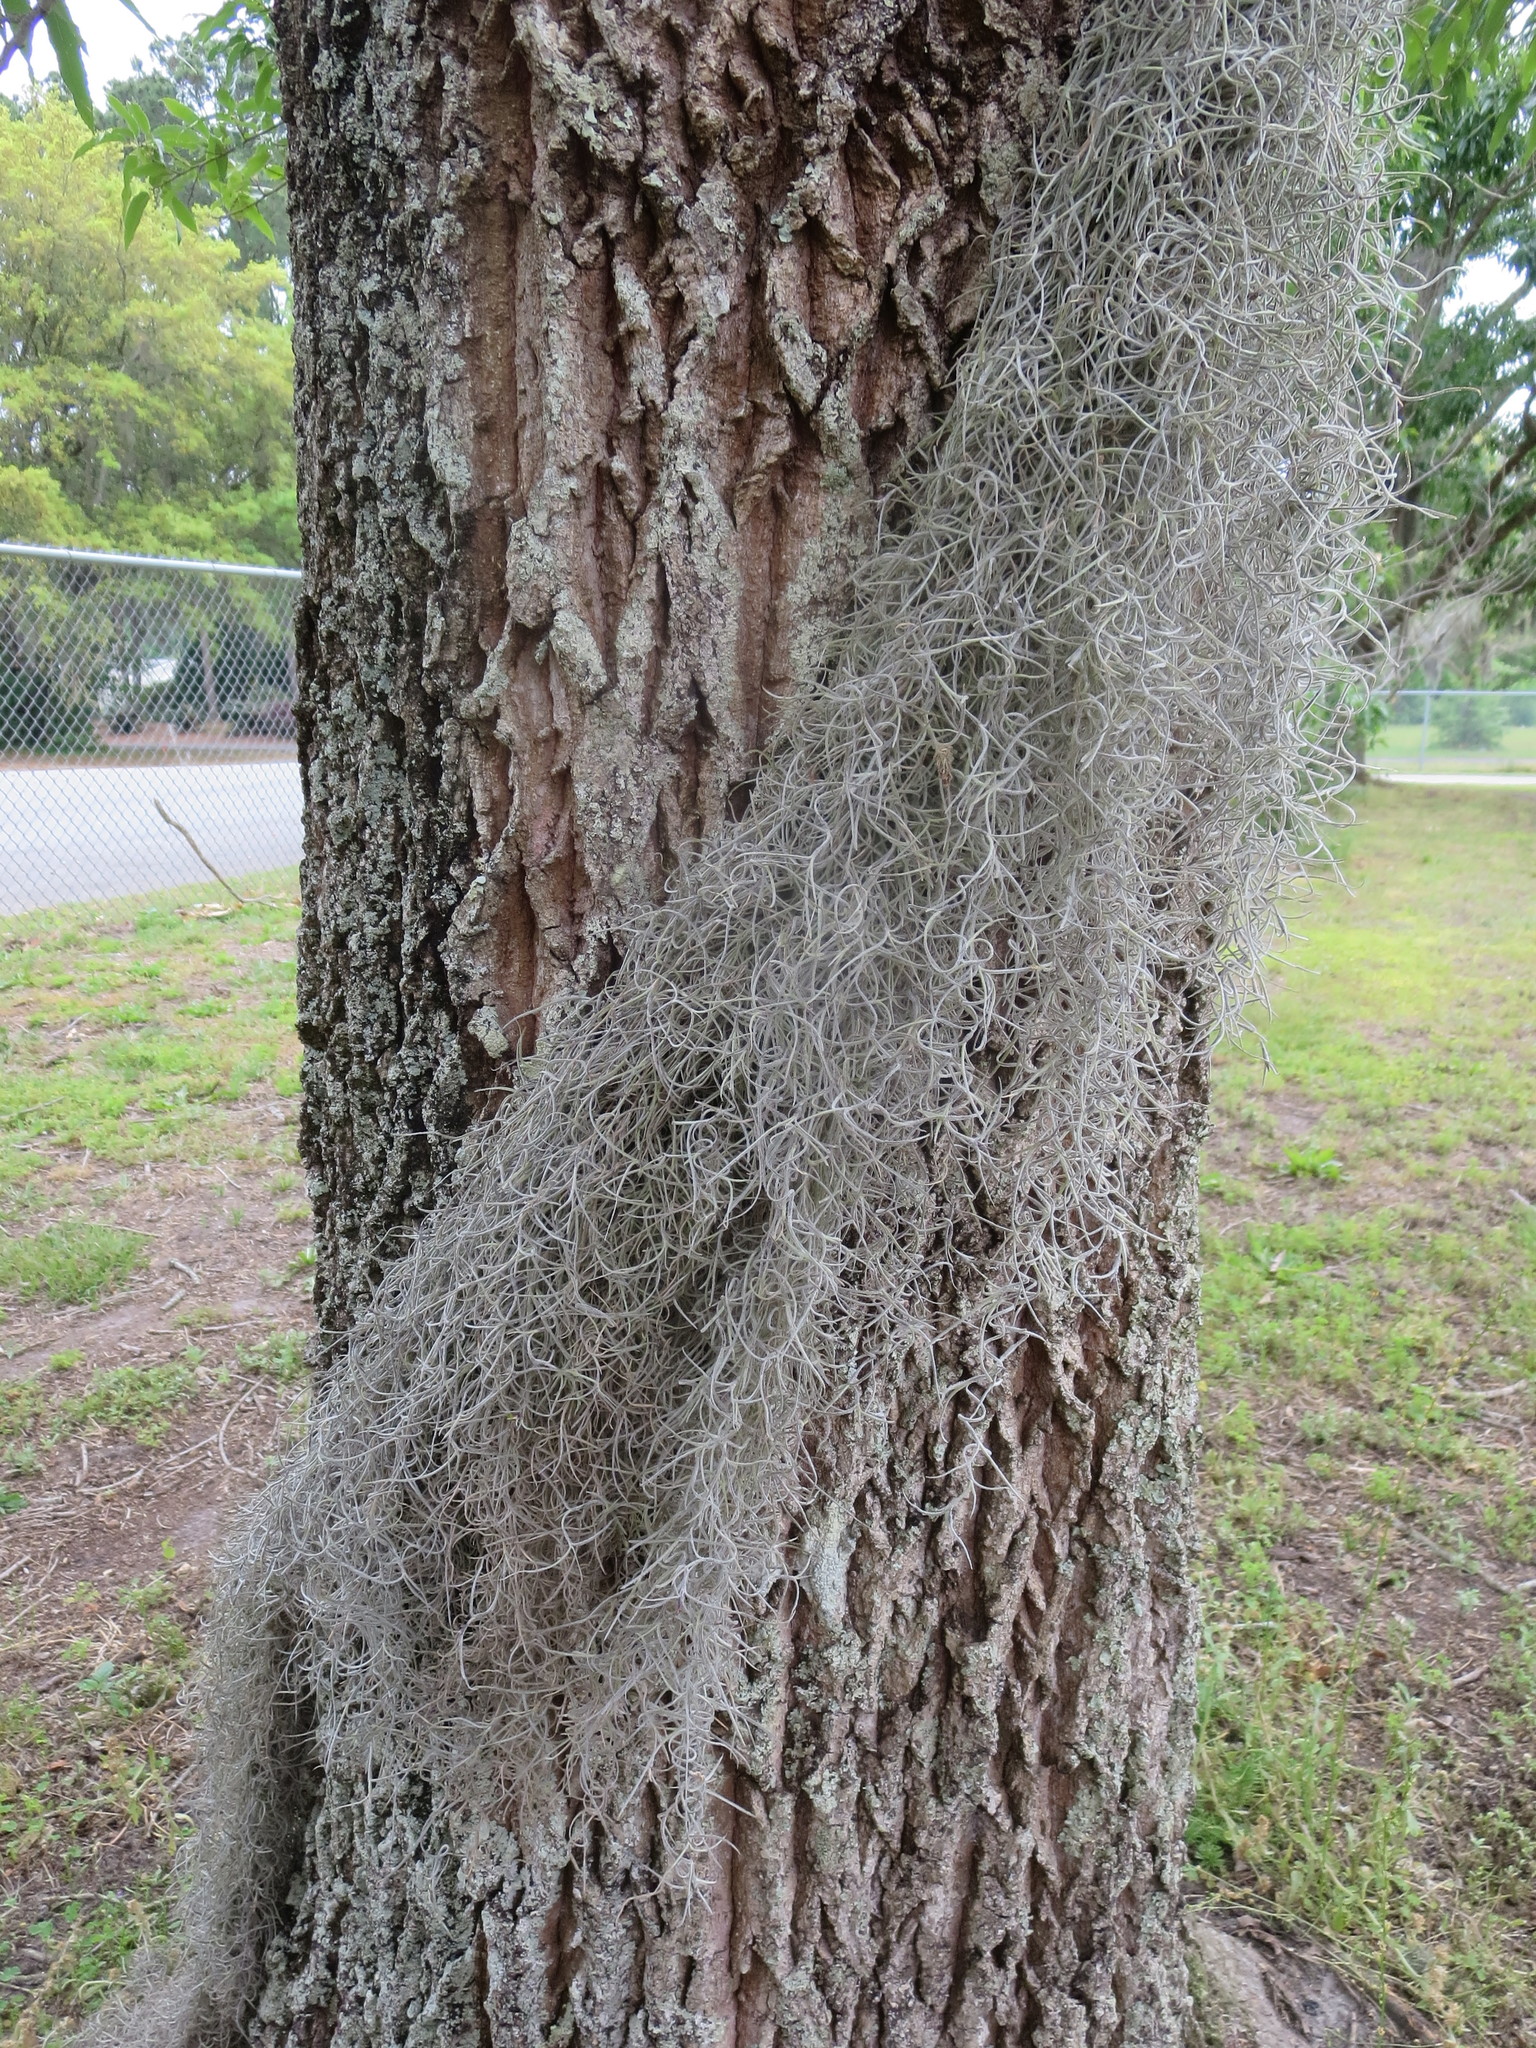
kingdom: Plantae
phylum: Tracheophyta
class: Liliopsida
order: Poales
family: Bromeliaceae
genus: Tillandsia
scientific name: Tillandsia usneoides
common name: Spanish moss
